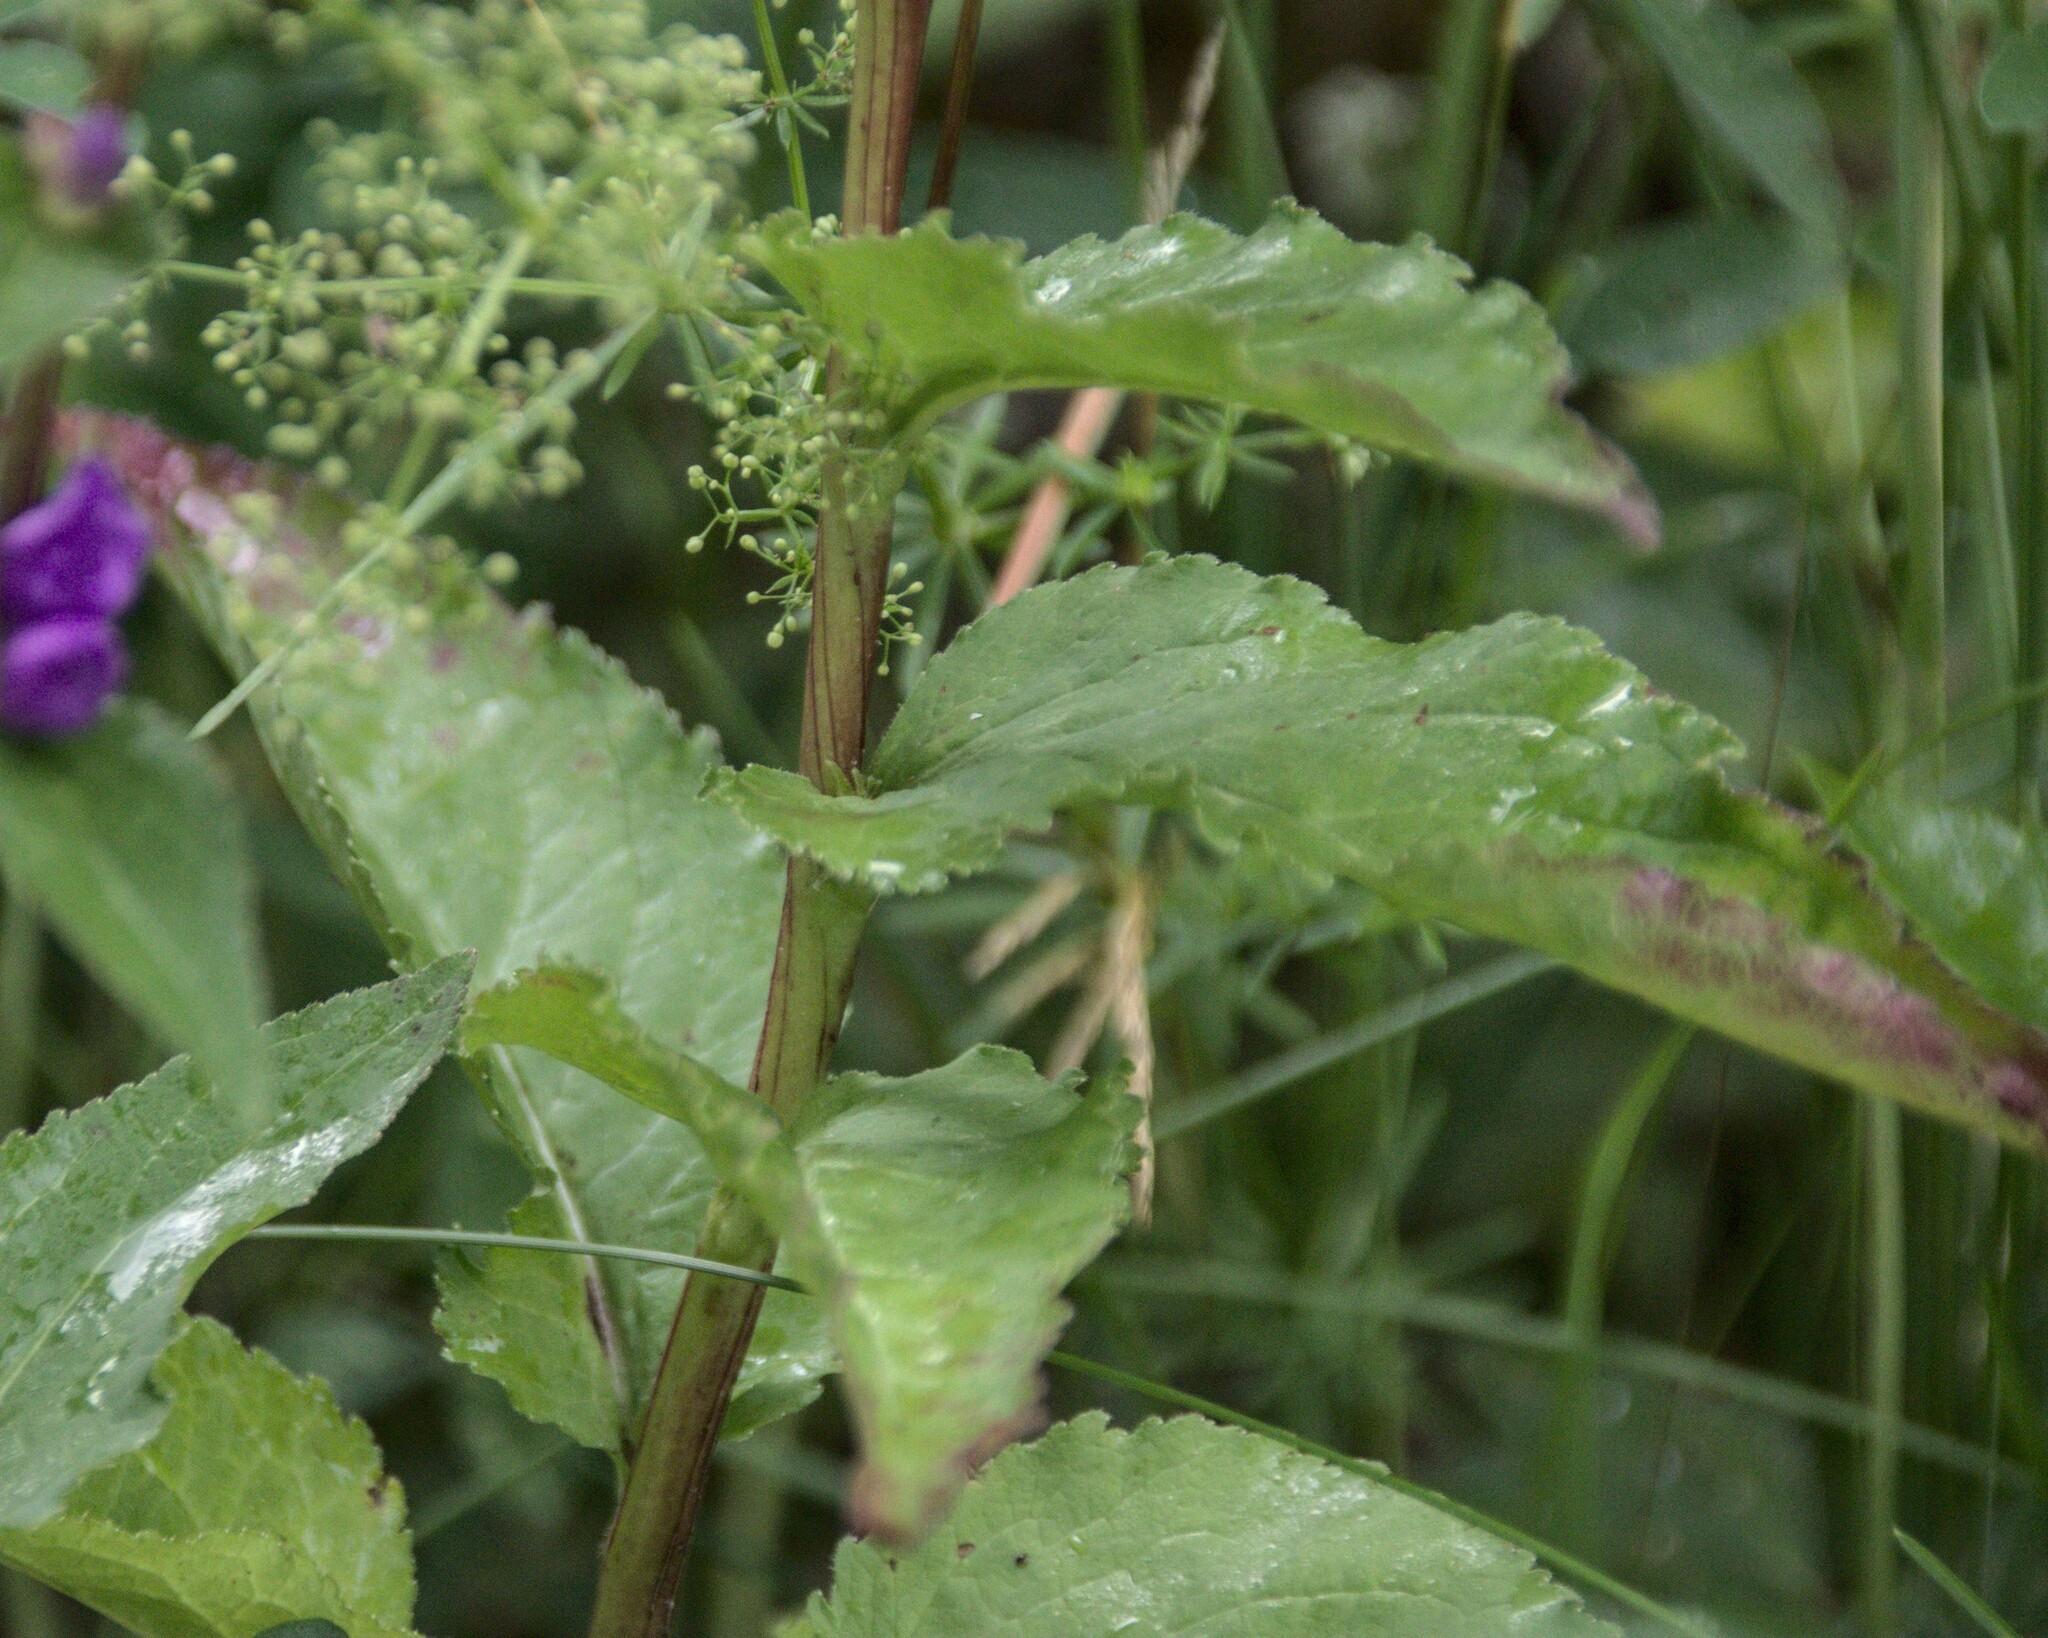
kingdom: Plantae
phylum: Tracheophyta
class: Magnoliopsida
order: Asterales
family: Campanulaceae
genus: Campanula
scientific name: Campanula glomerata
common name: Clustered bellflower
